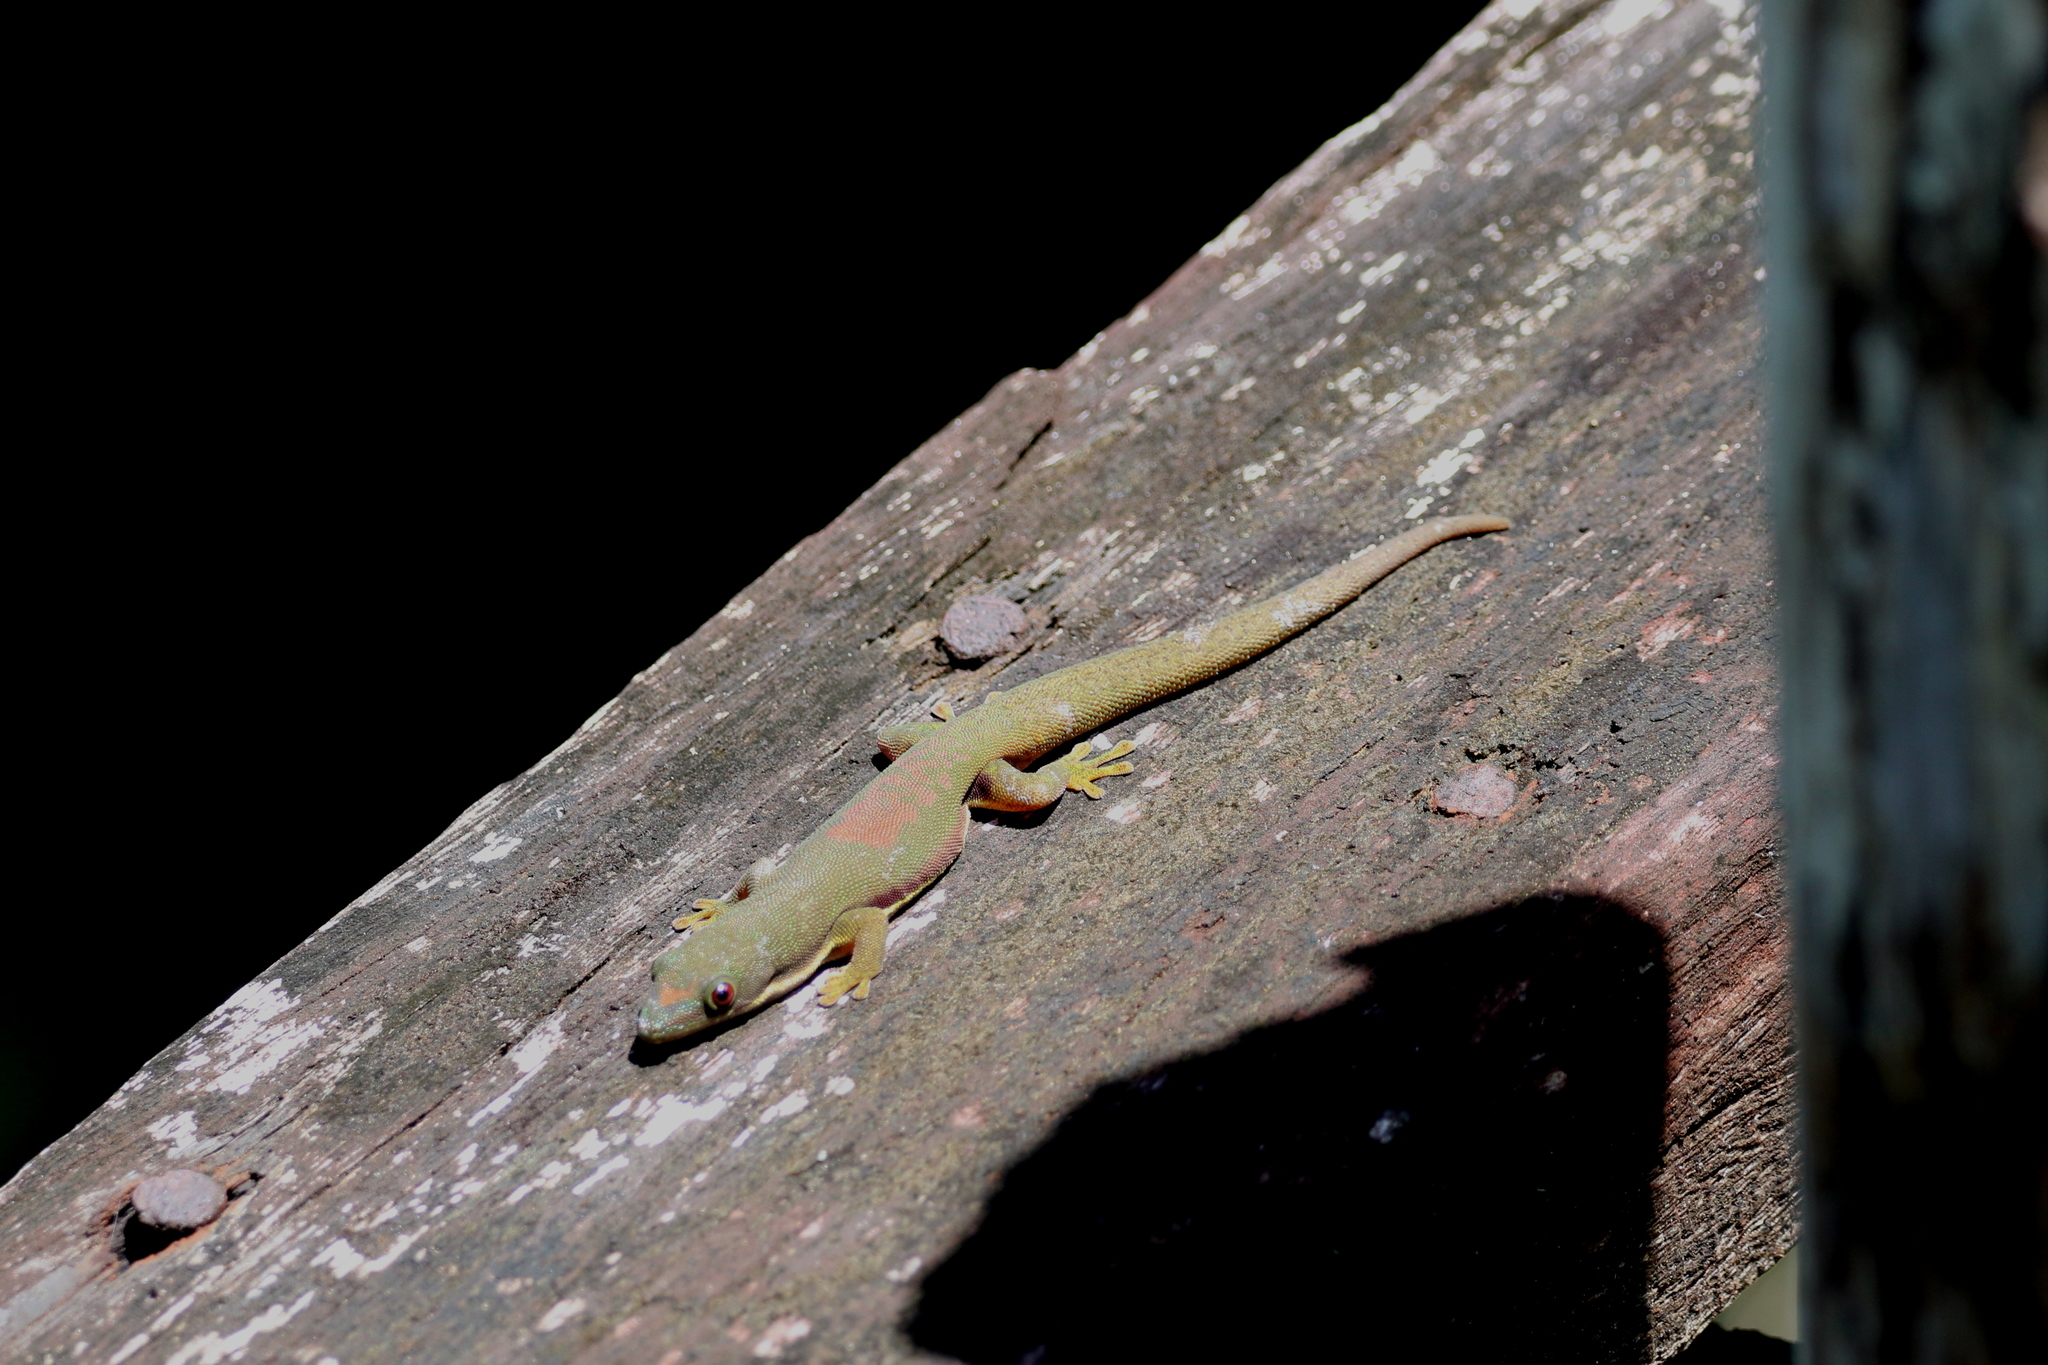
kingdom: Animalia
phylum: Chordata
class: Squamata
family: Gekkonidae
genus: Phelsuma
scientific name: Phelsuma lineata
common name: Lined day gecko
